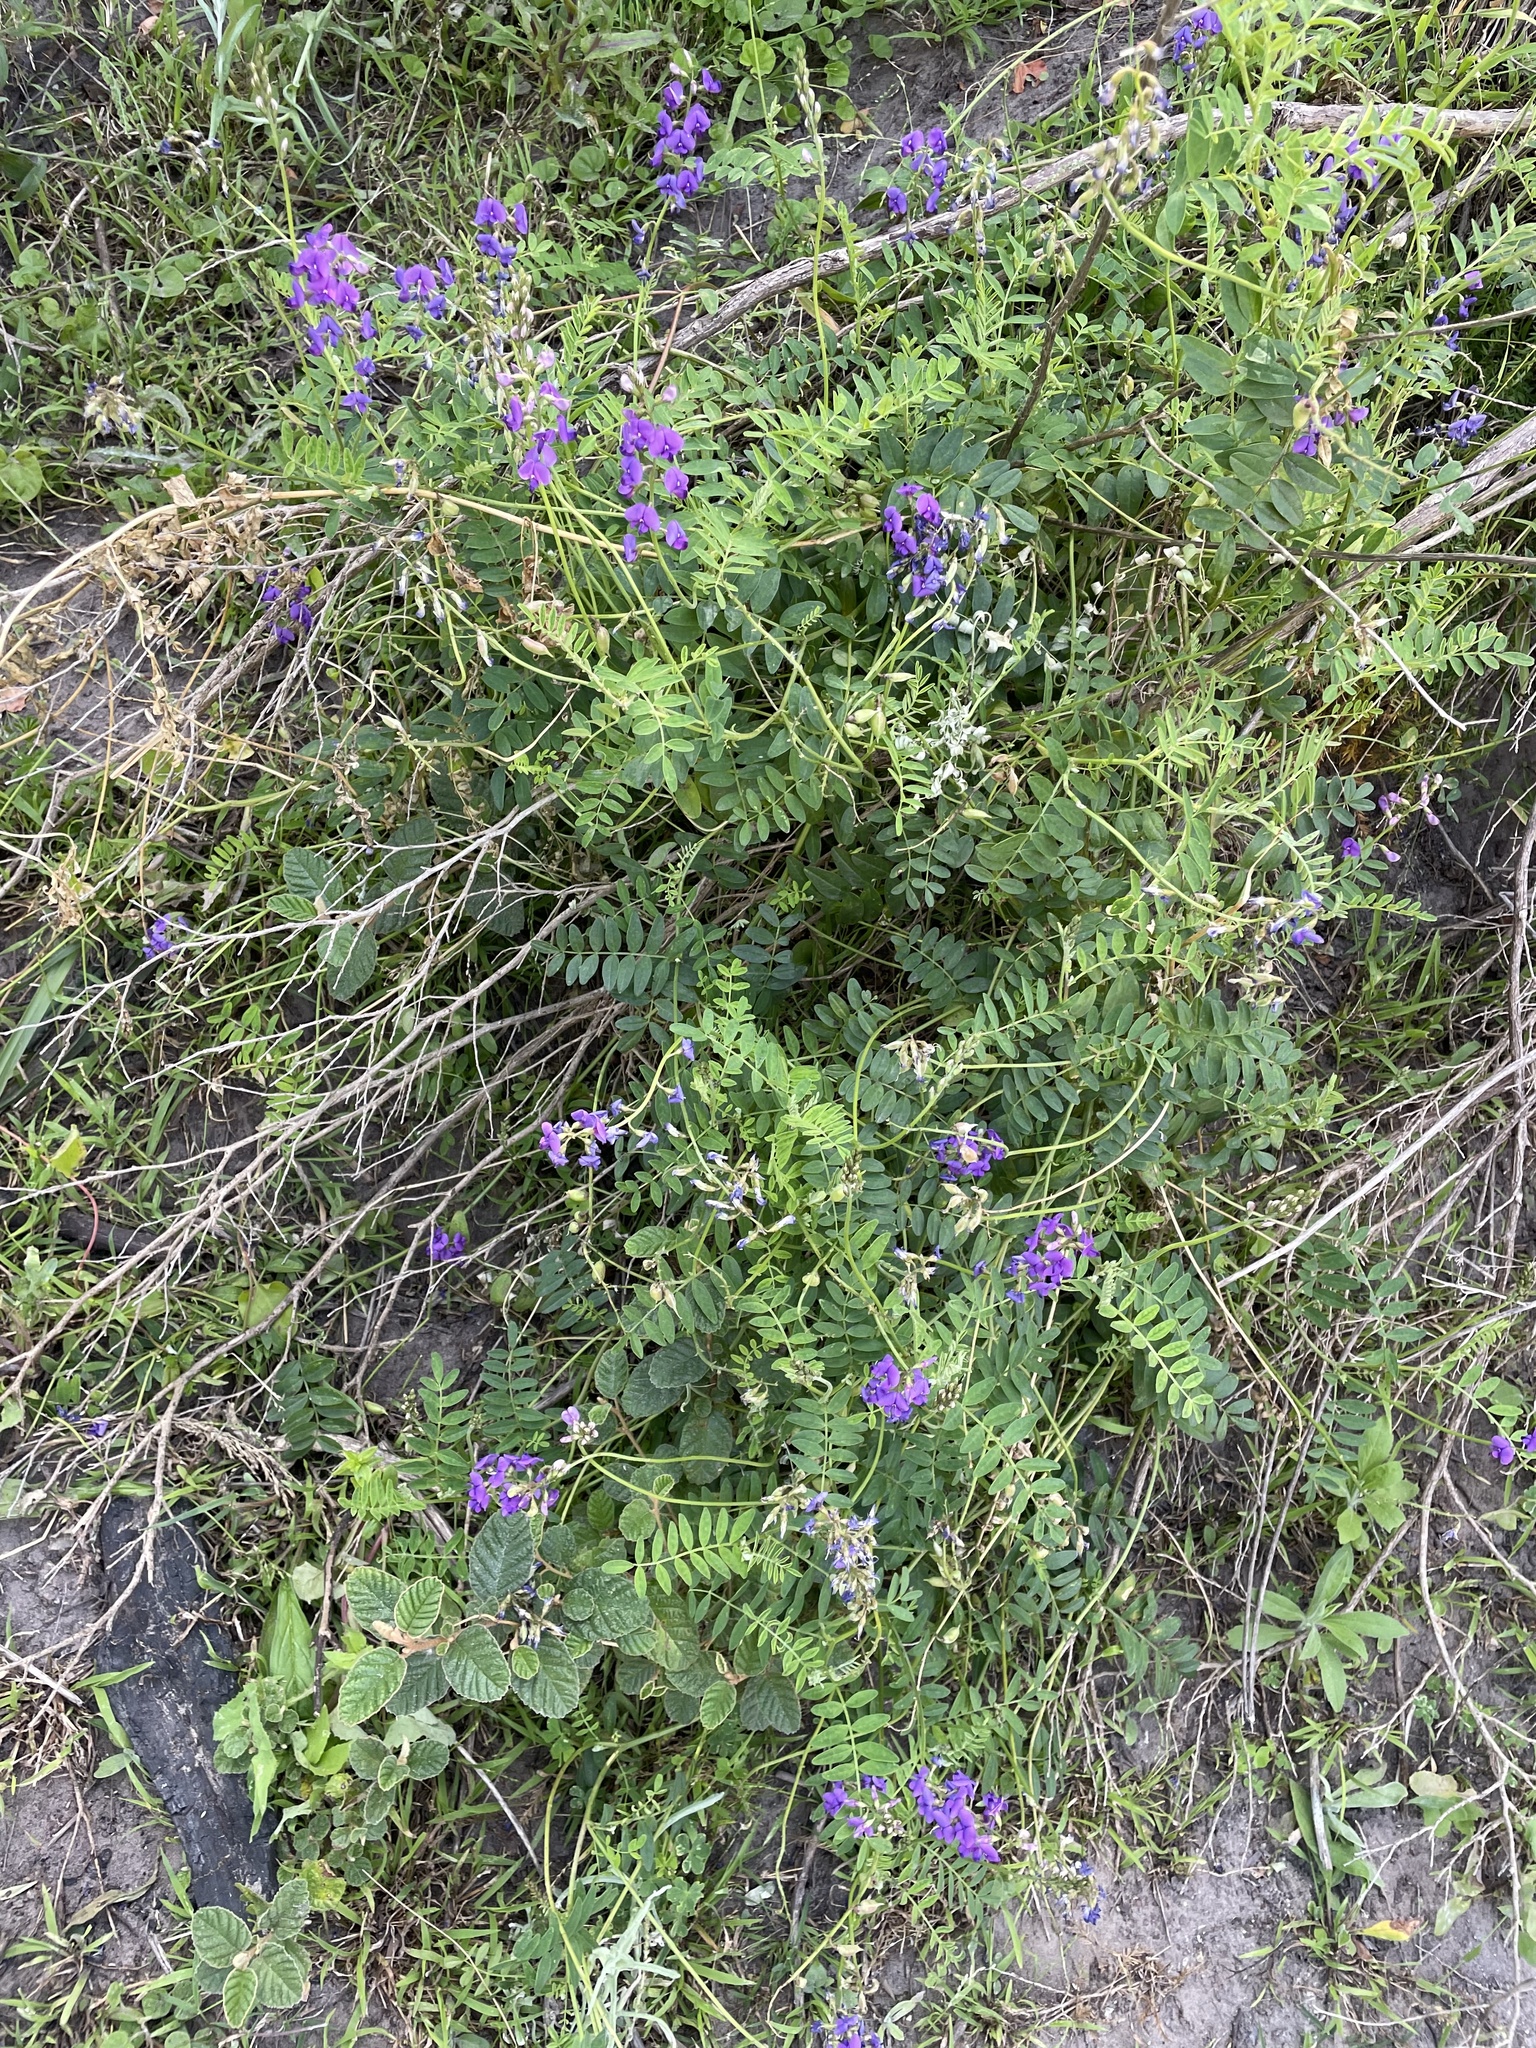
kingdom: Plantae
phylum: Tracheophyta
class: Magnoliopsida
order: Fabales
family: Fabaceae
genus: Swainsona
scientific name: Swainsona lessertiifolia
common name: Bog-pea
